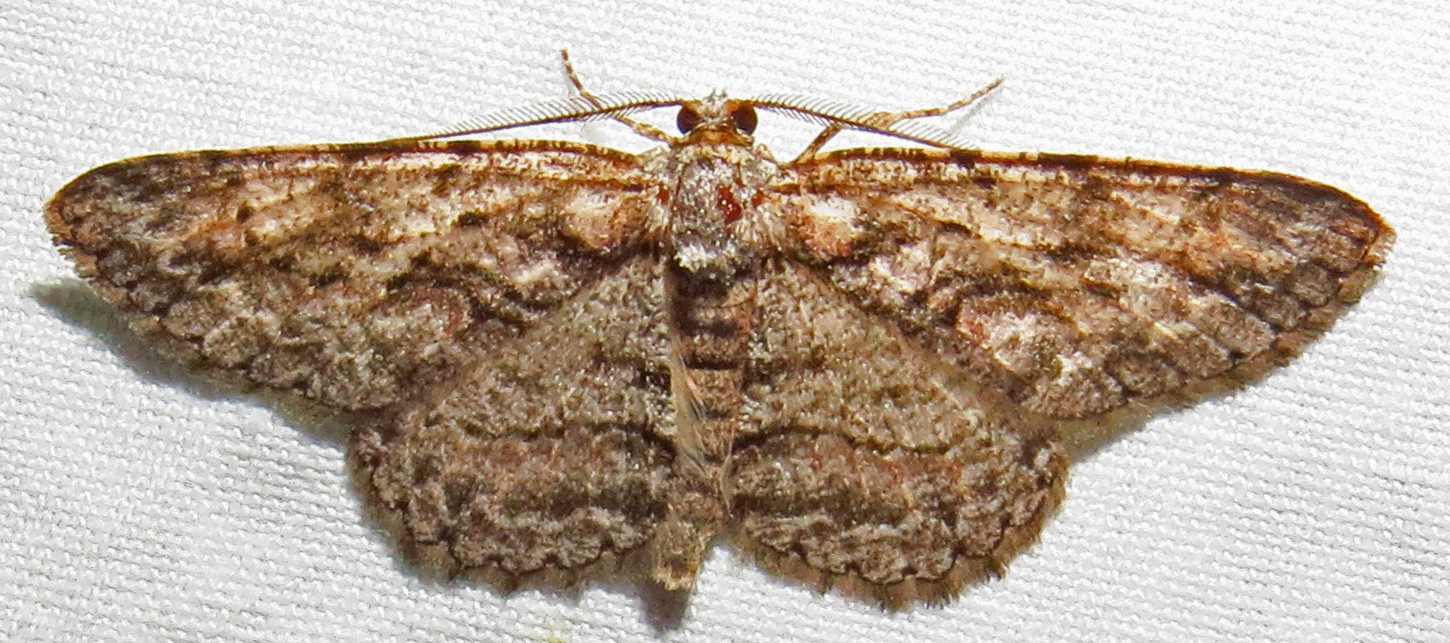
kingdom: Animalia
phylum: Arthropoda
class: Insecta
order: Lepidoptera
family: Geometridae
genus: Anavitrinella
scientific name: Anavitrinella pampinaria
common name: Common gray
